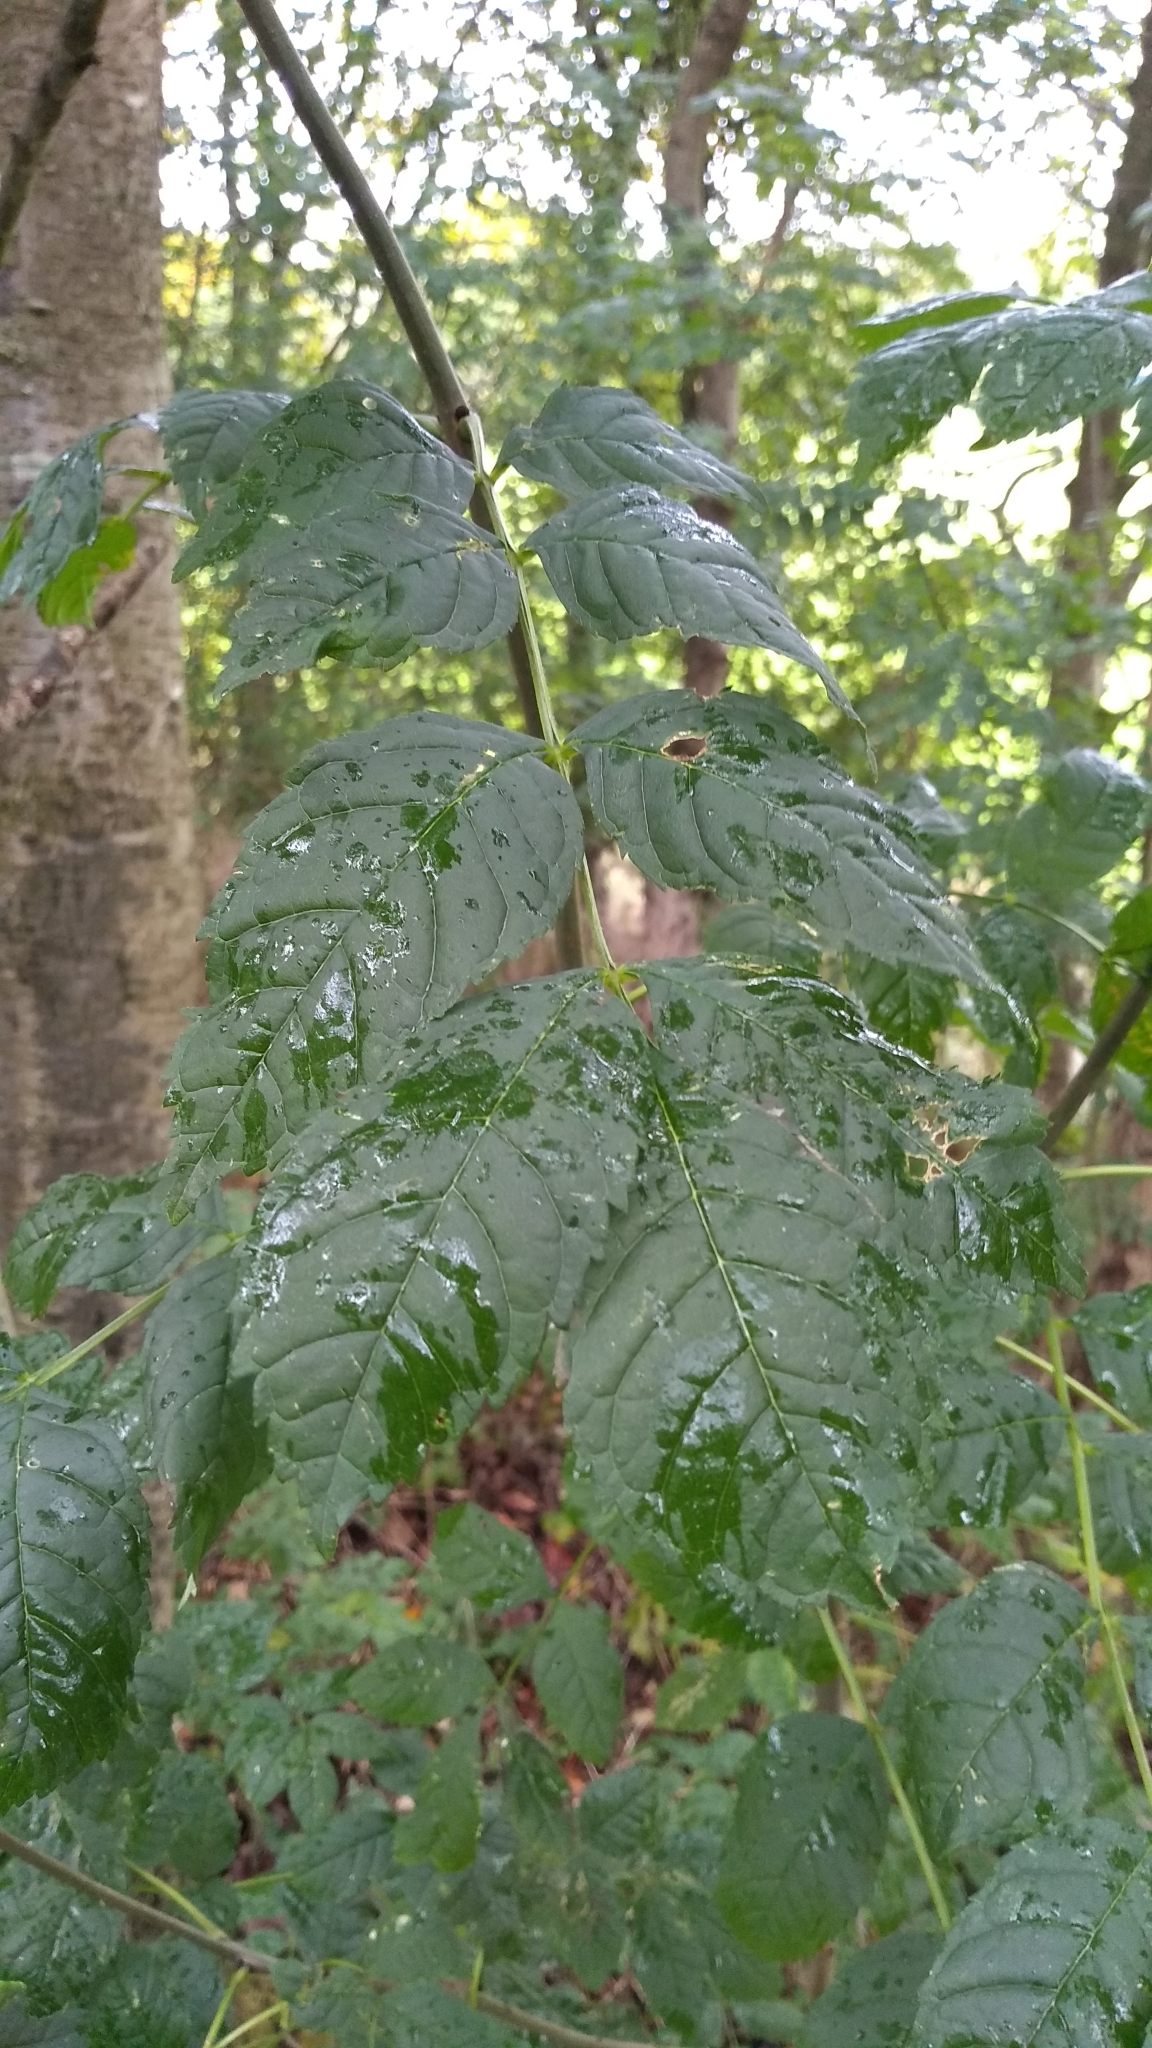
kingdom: Plantae
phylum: Tracheophyta
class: Magnoliopsida
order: Lamiales
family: Oleaceae
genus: Fraxinus
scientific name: Fraxinus excelsior
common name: European ash
